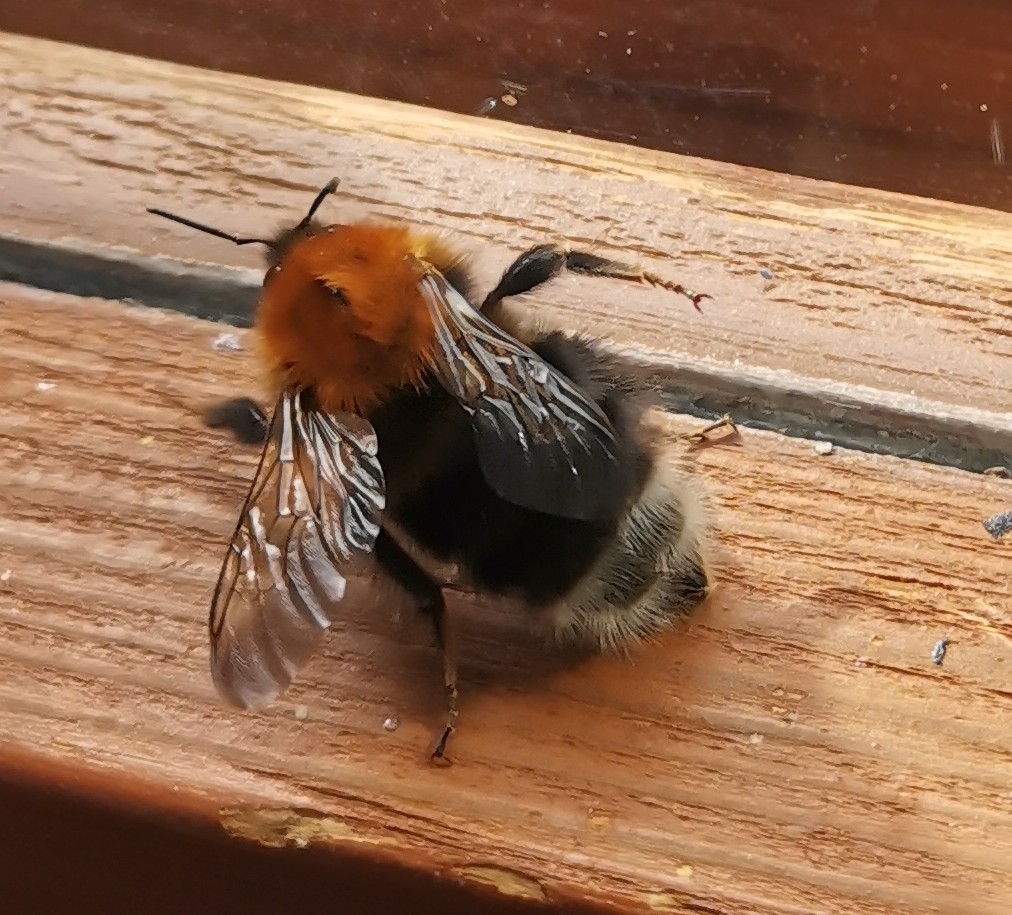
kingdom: Animalia
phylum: Arthropoda
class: Insecta
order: Hymenoptera
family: Apidae
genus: Bombus
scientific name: Bombus hypnorum
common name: New garden bumblebee
